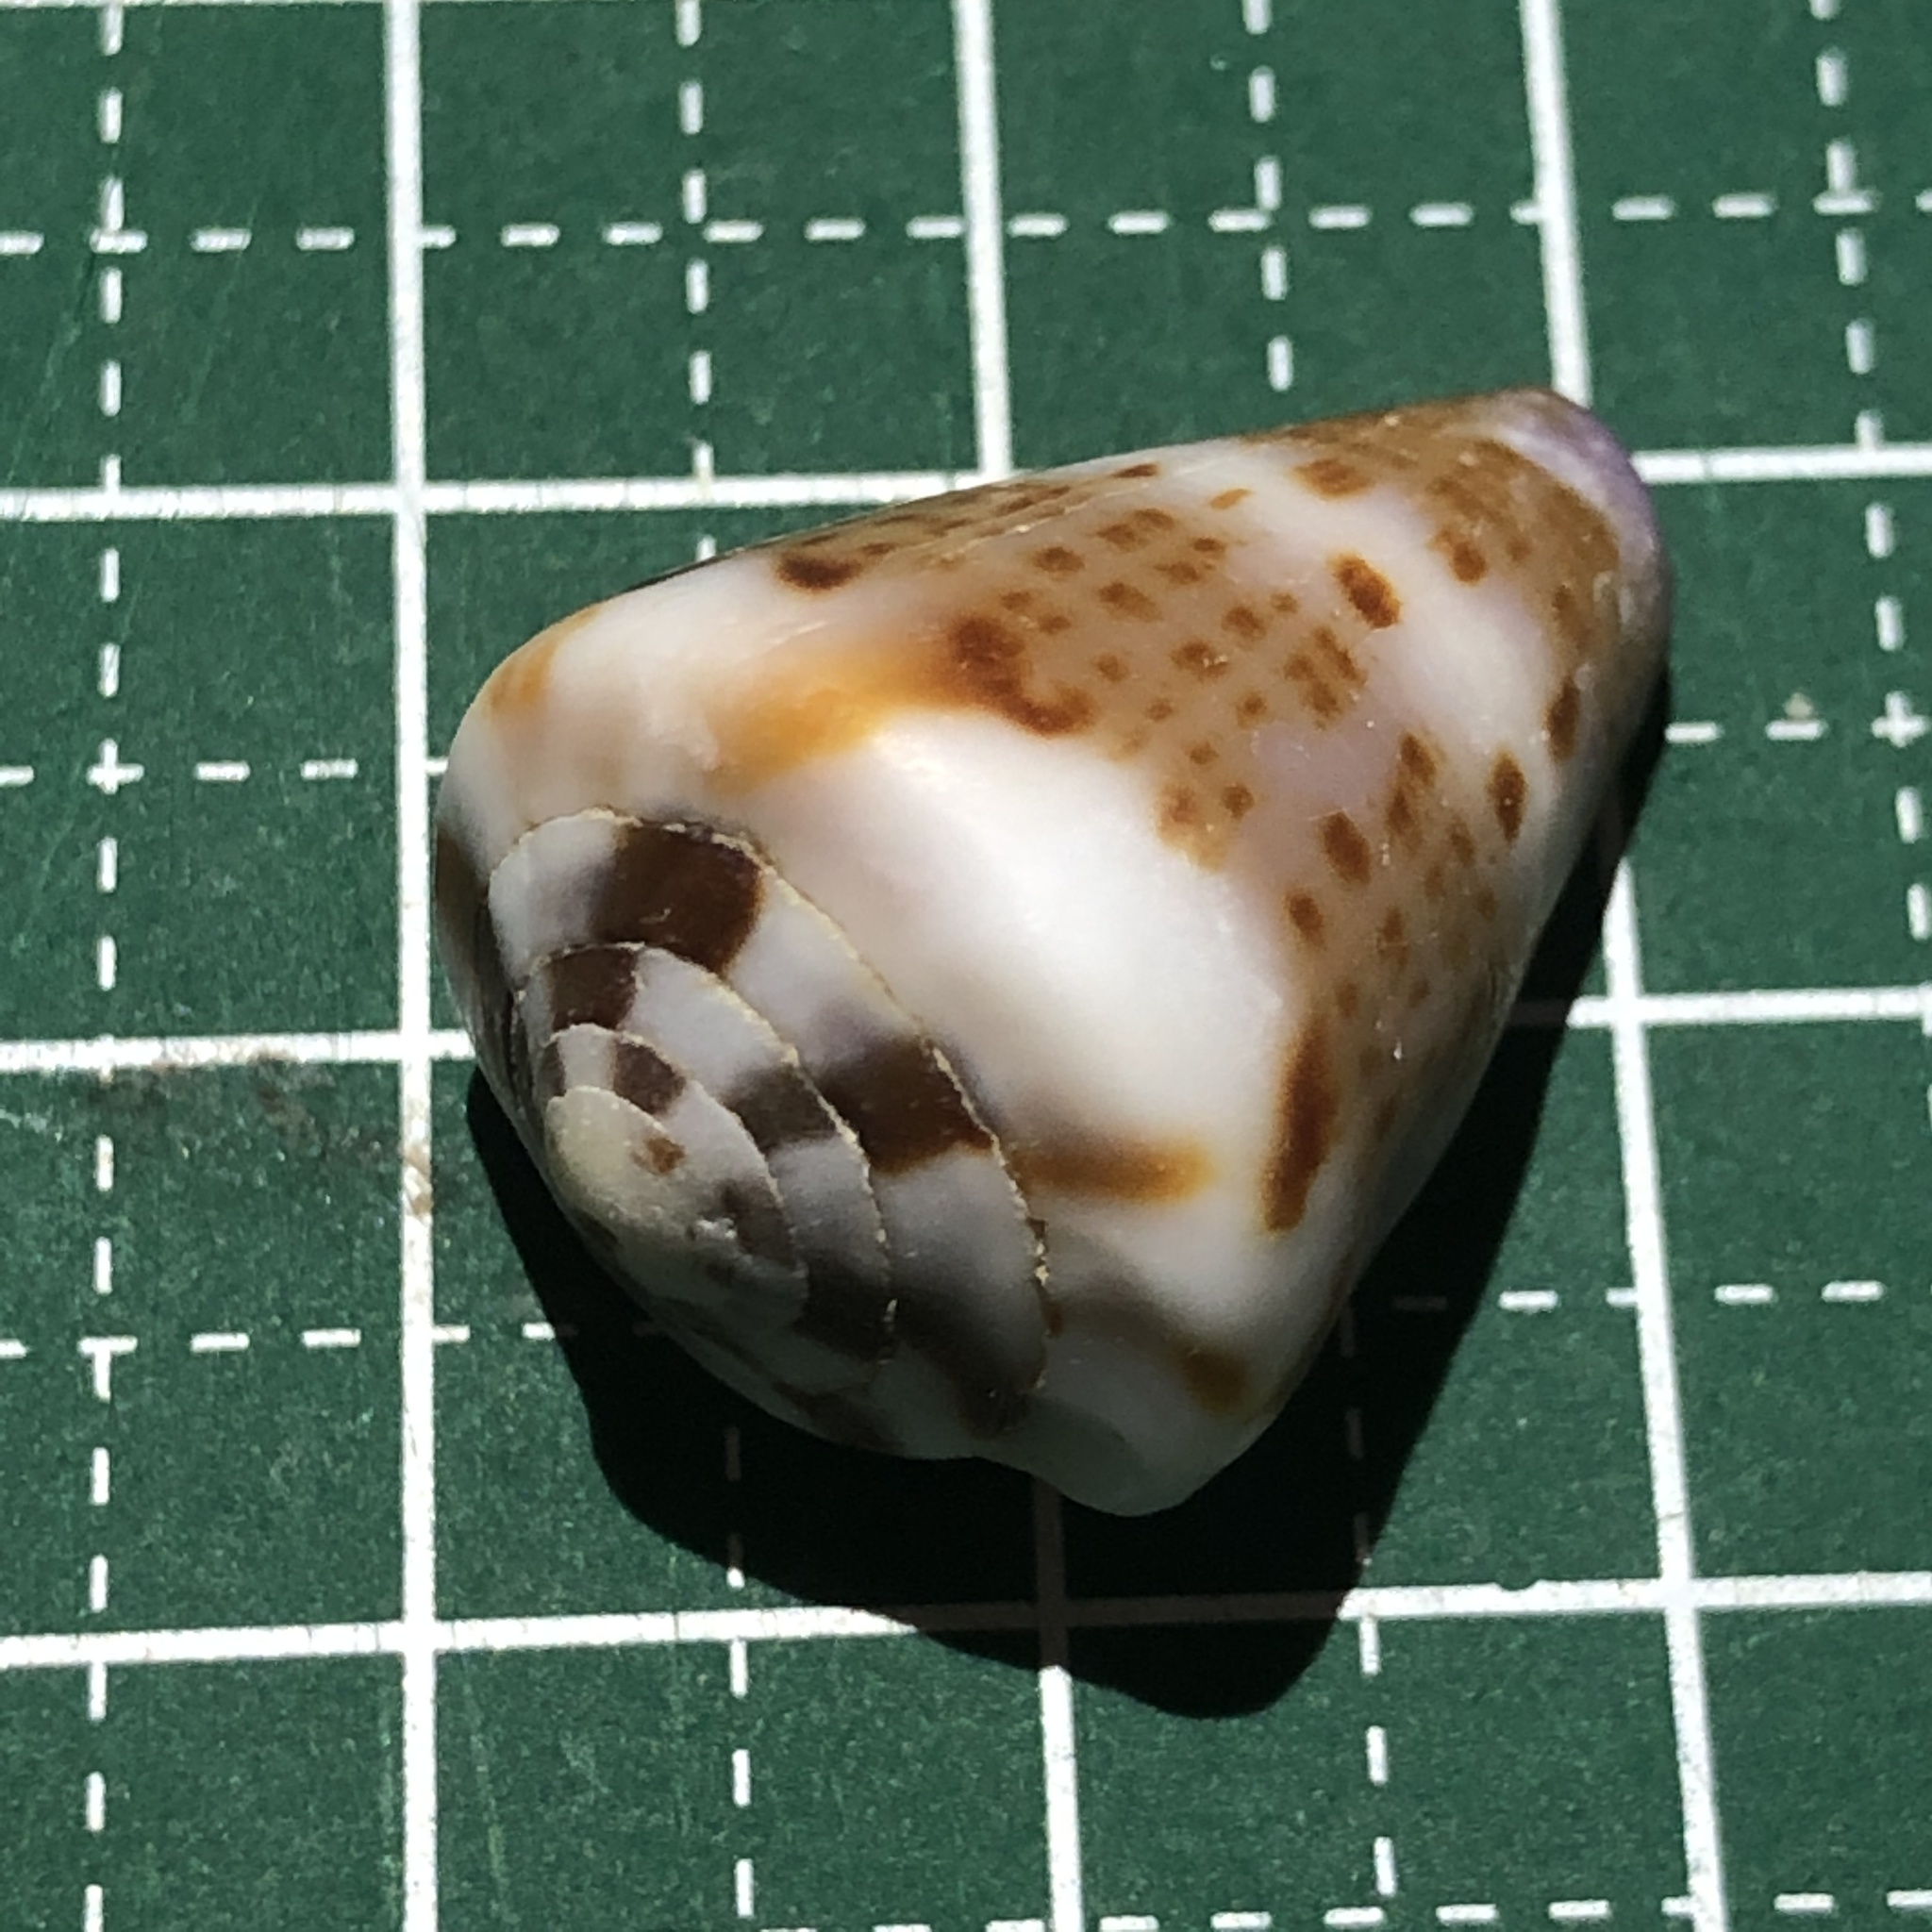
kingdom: Animalia
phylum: Mollusca
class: Gastropoda
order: Neogastropoda
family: Conidae
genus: Conus
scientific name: Conus capitaneus
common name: Captain cone
